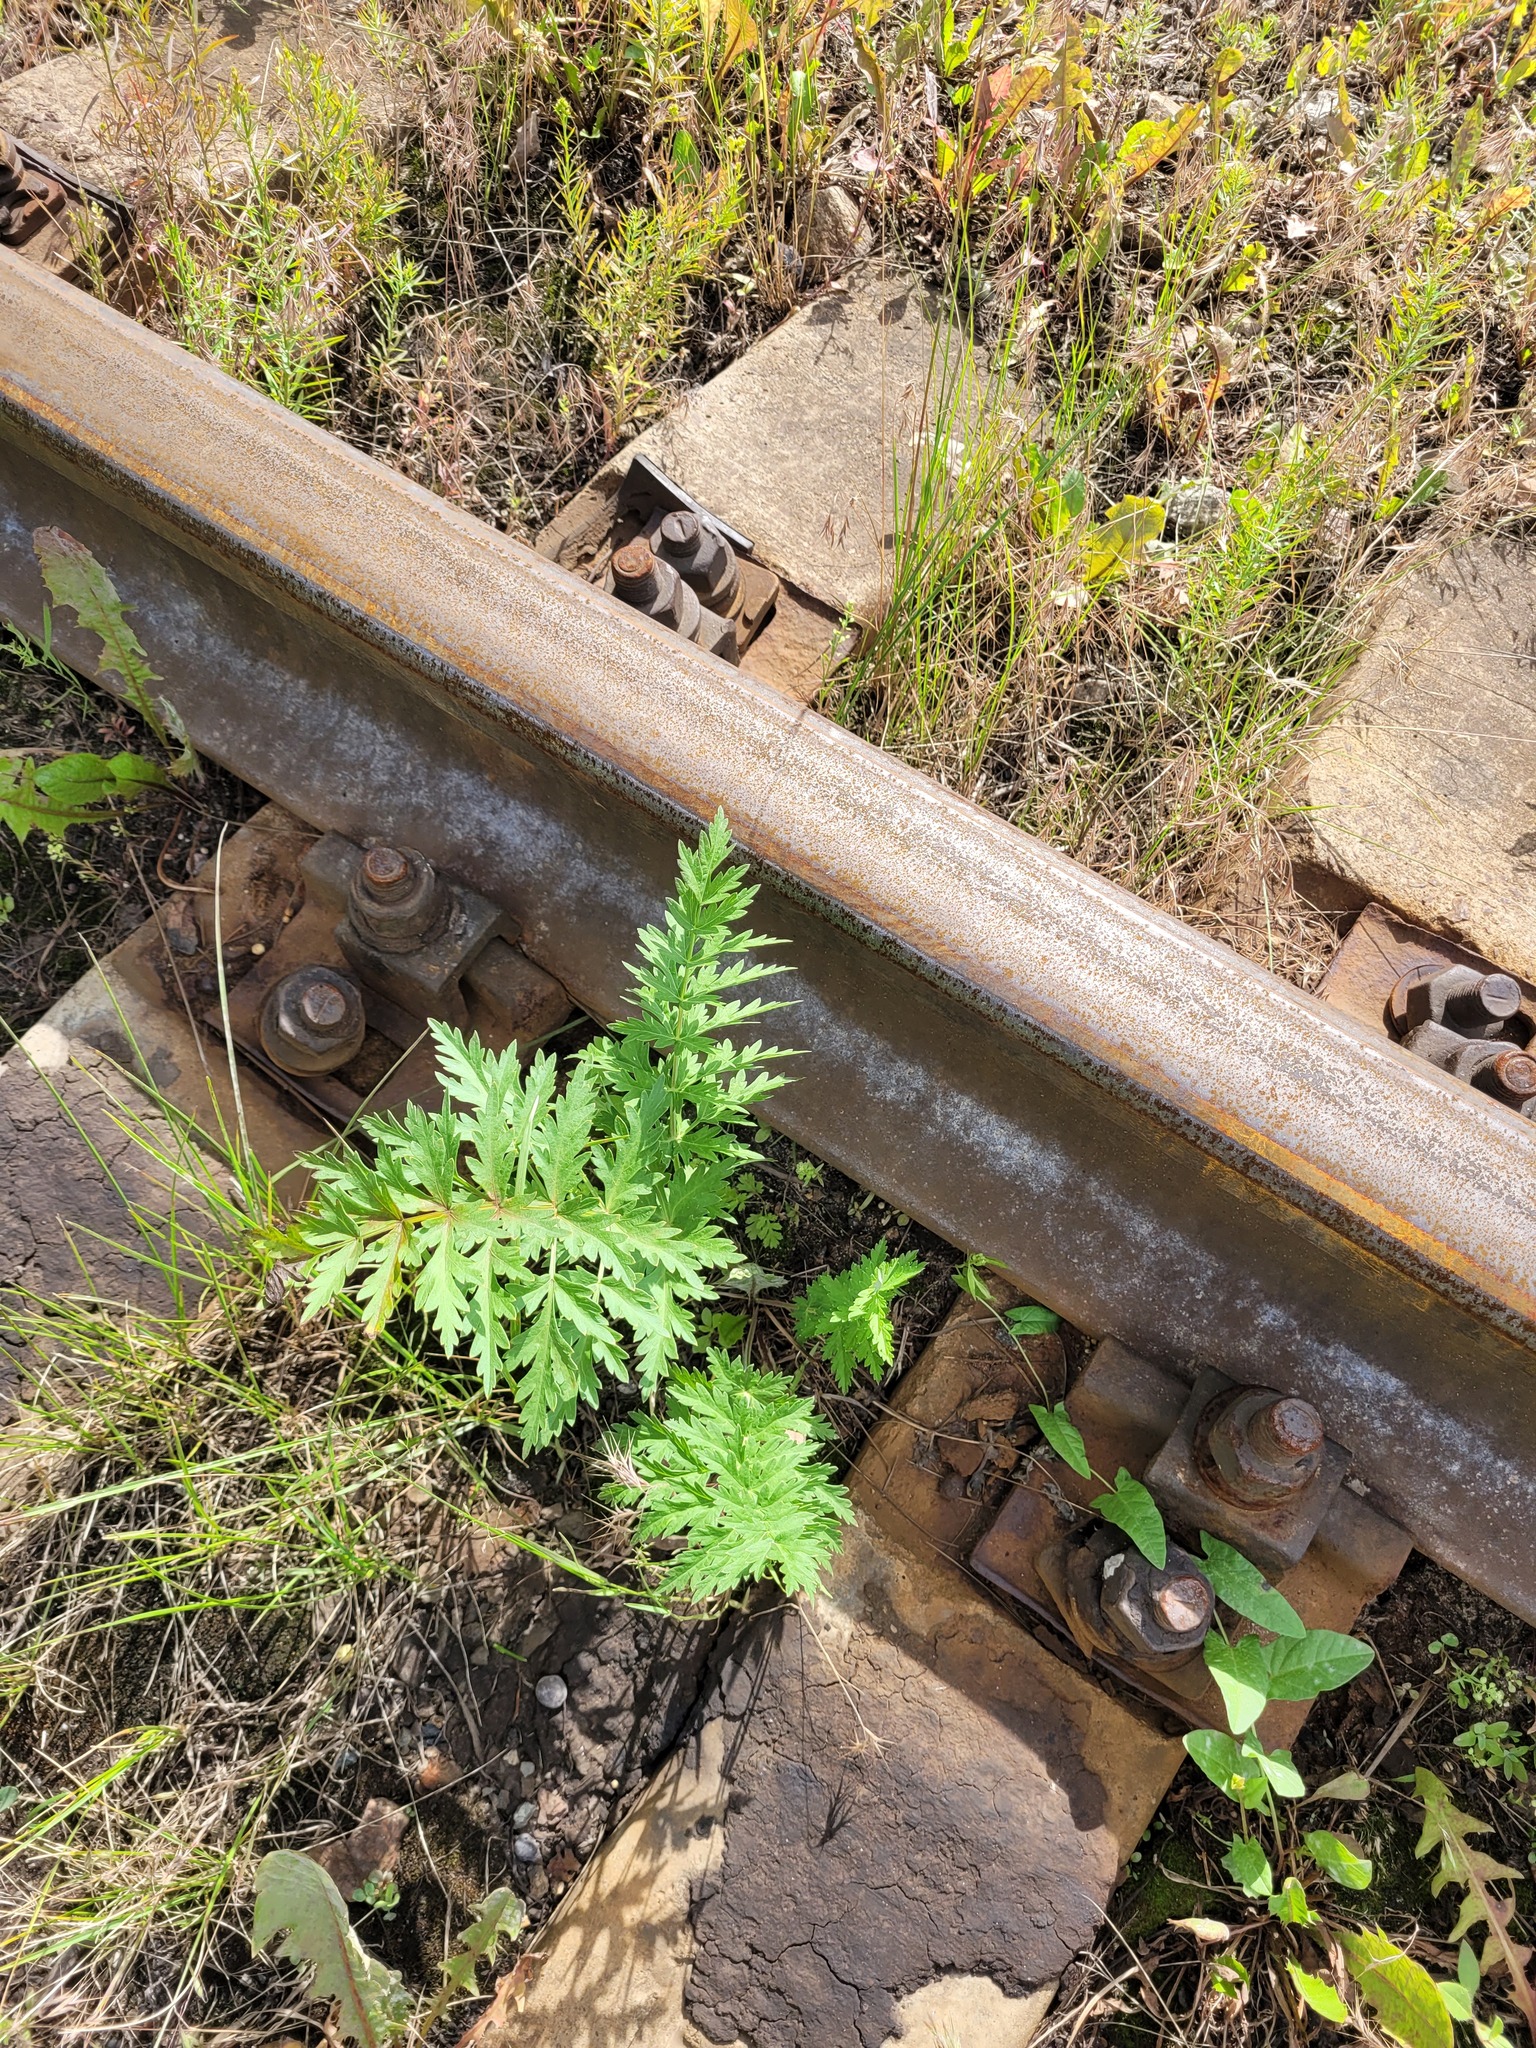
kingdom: Plantae
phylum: Tracheophyta
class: Magnoliopsida
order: Apiales
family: Apiaceae
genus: Seseli
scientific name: Seseli libanotis
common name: Mooncarrot
